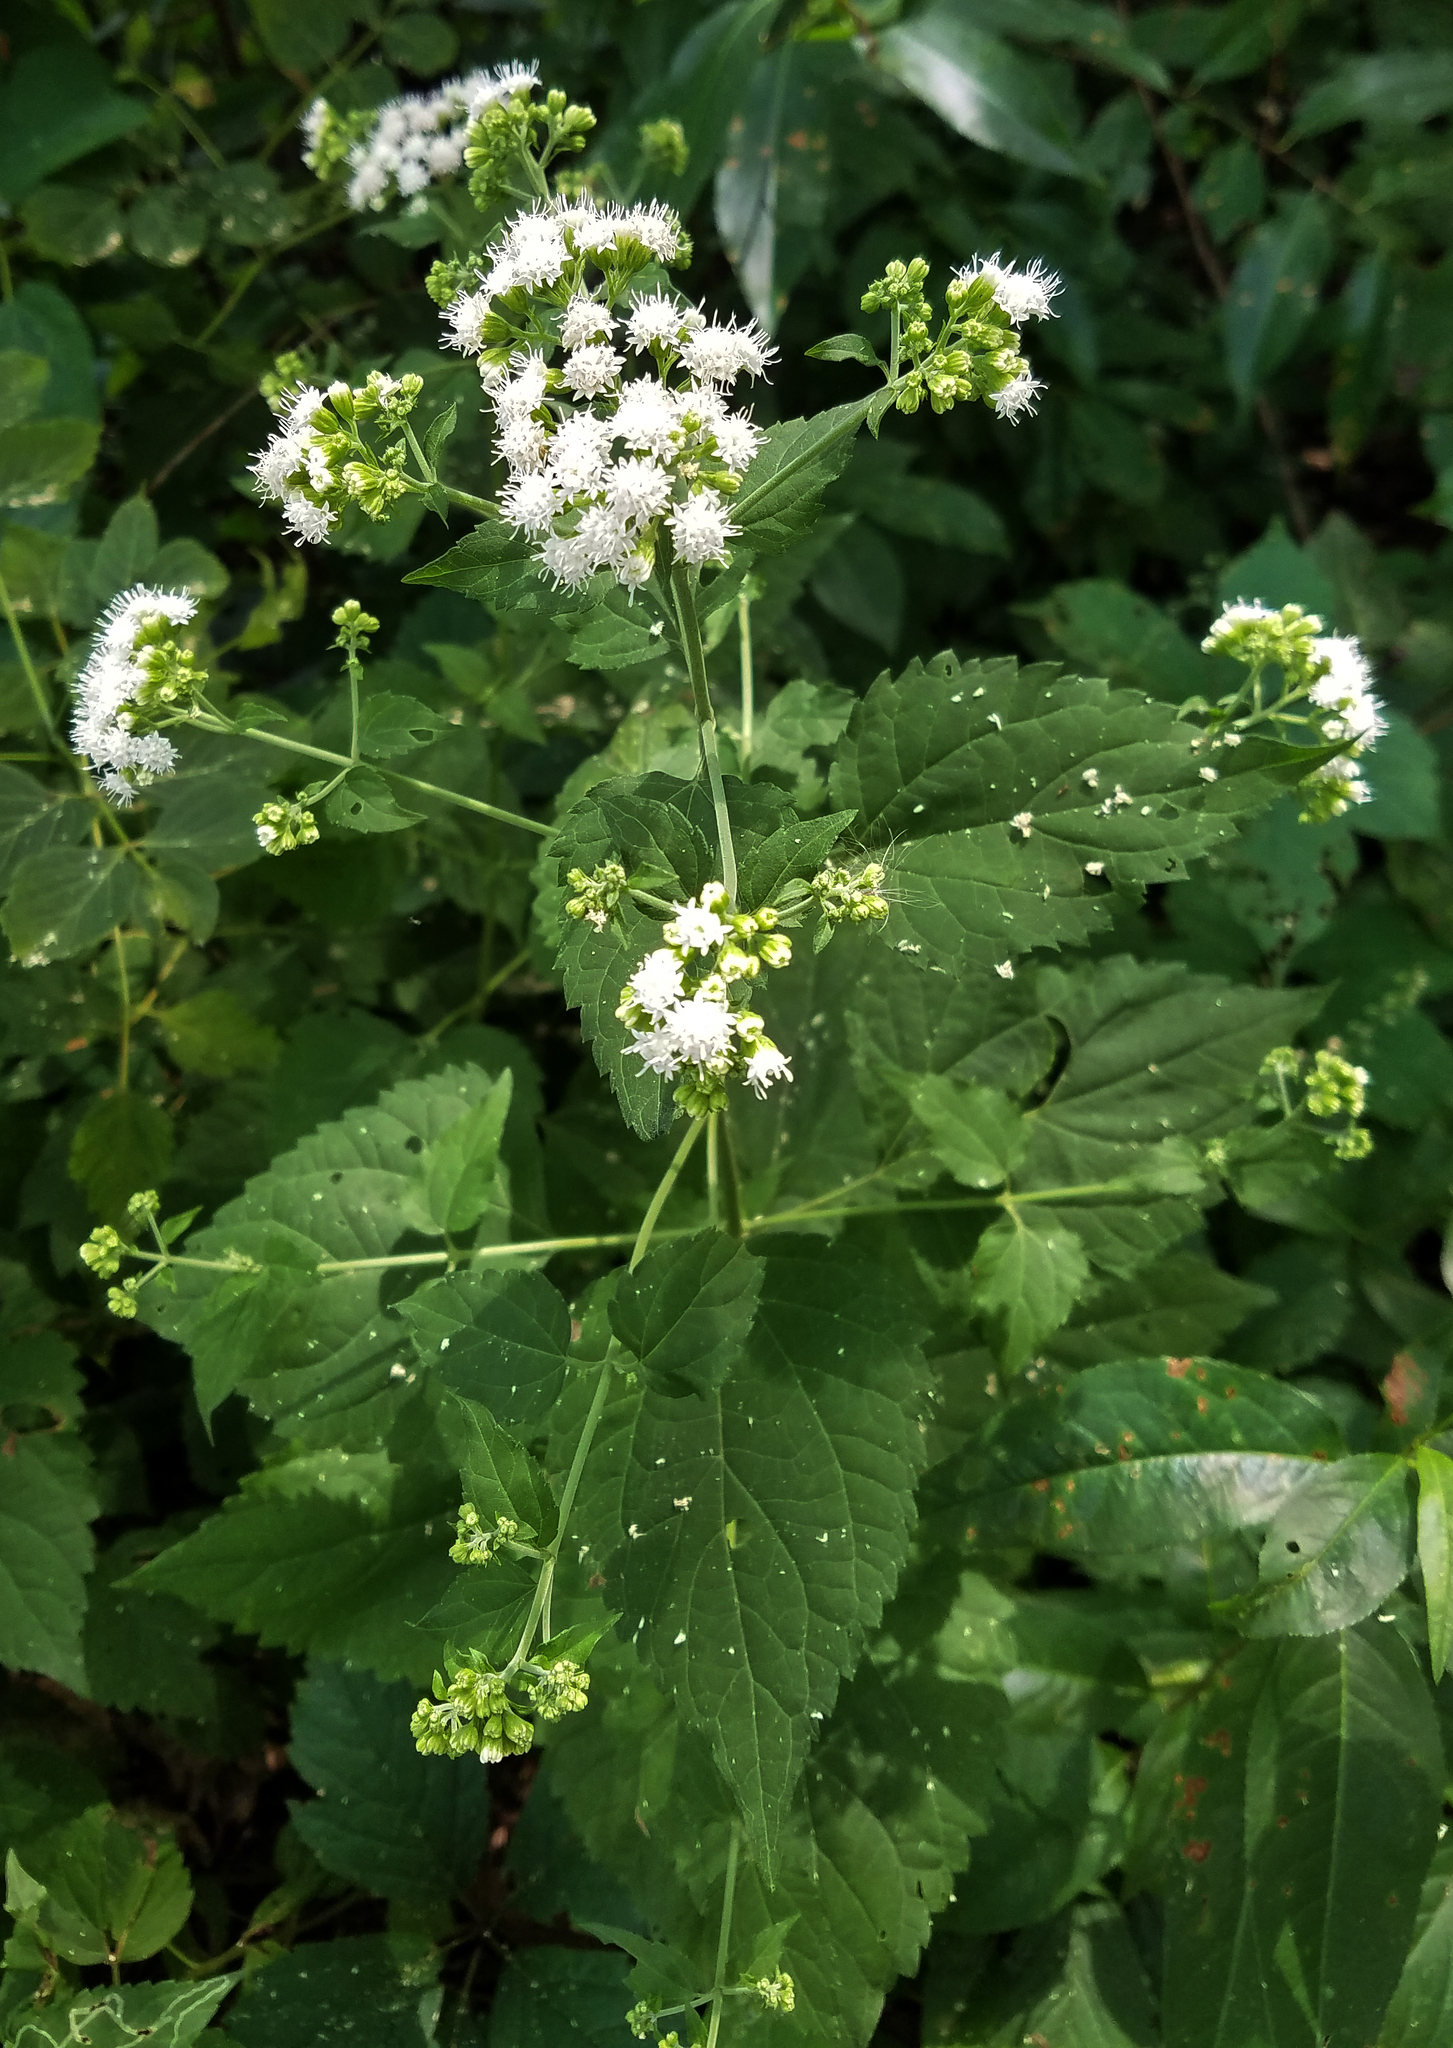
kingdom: Plantae
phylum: Tracheophyta
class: Magnoliopsida
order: Asterales
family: Asteraceae
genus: Ageratina
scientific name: Ageratina altissima
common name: White snakeroot
